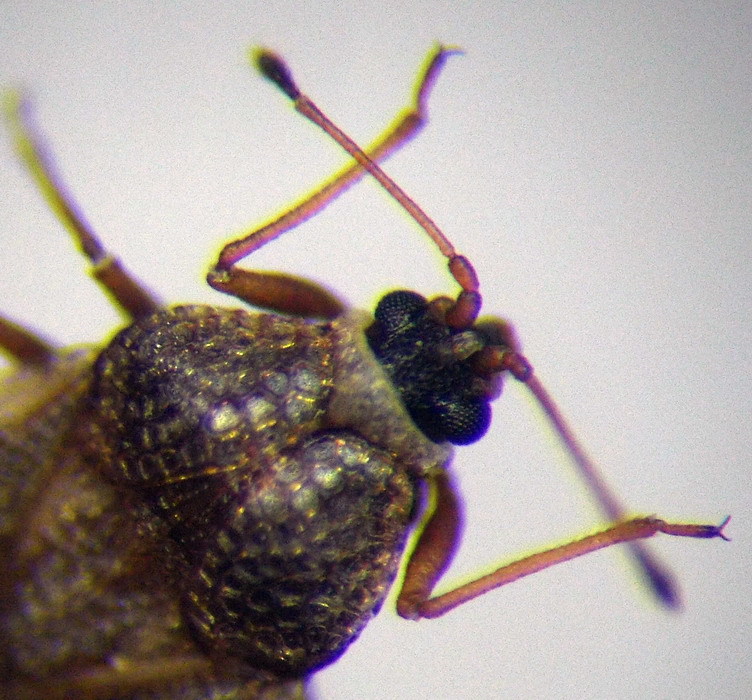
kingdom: Animalia
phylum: Arthropoda
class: Insecta
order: Hemiptera
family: Tingidae
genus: Dictyla
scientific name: Dictyla echii
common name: Lace bug
